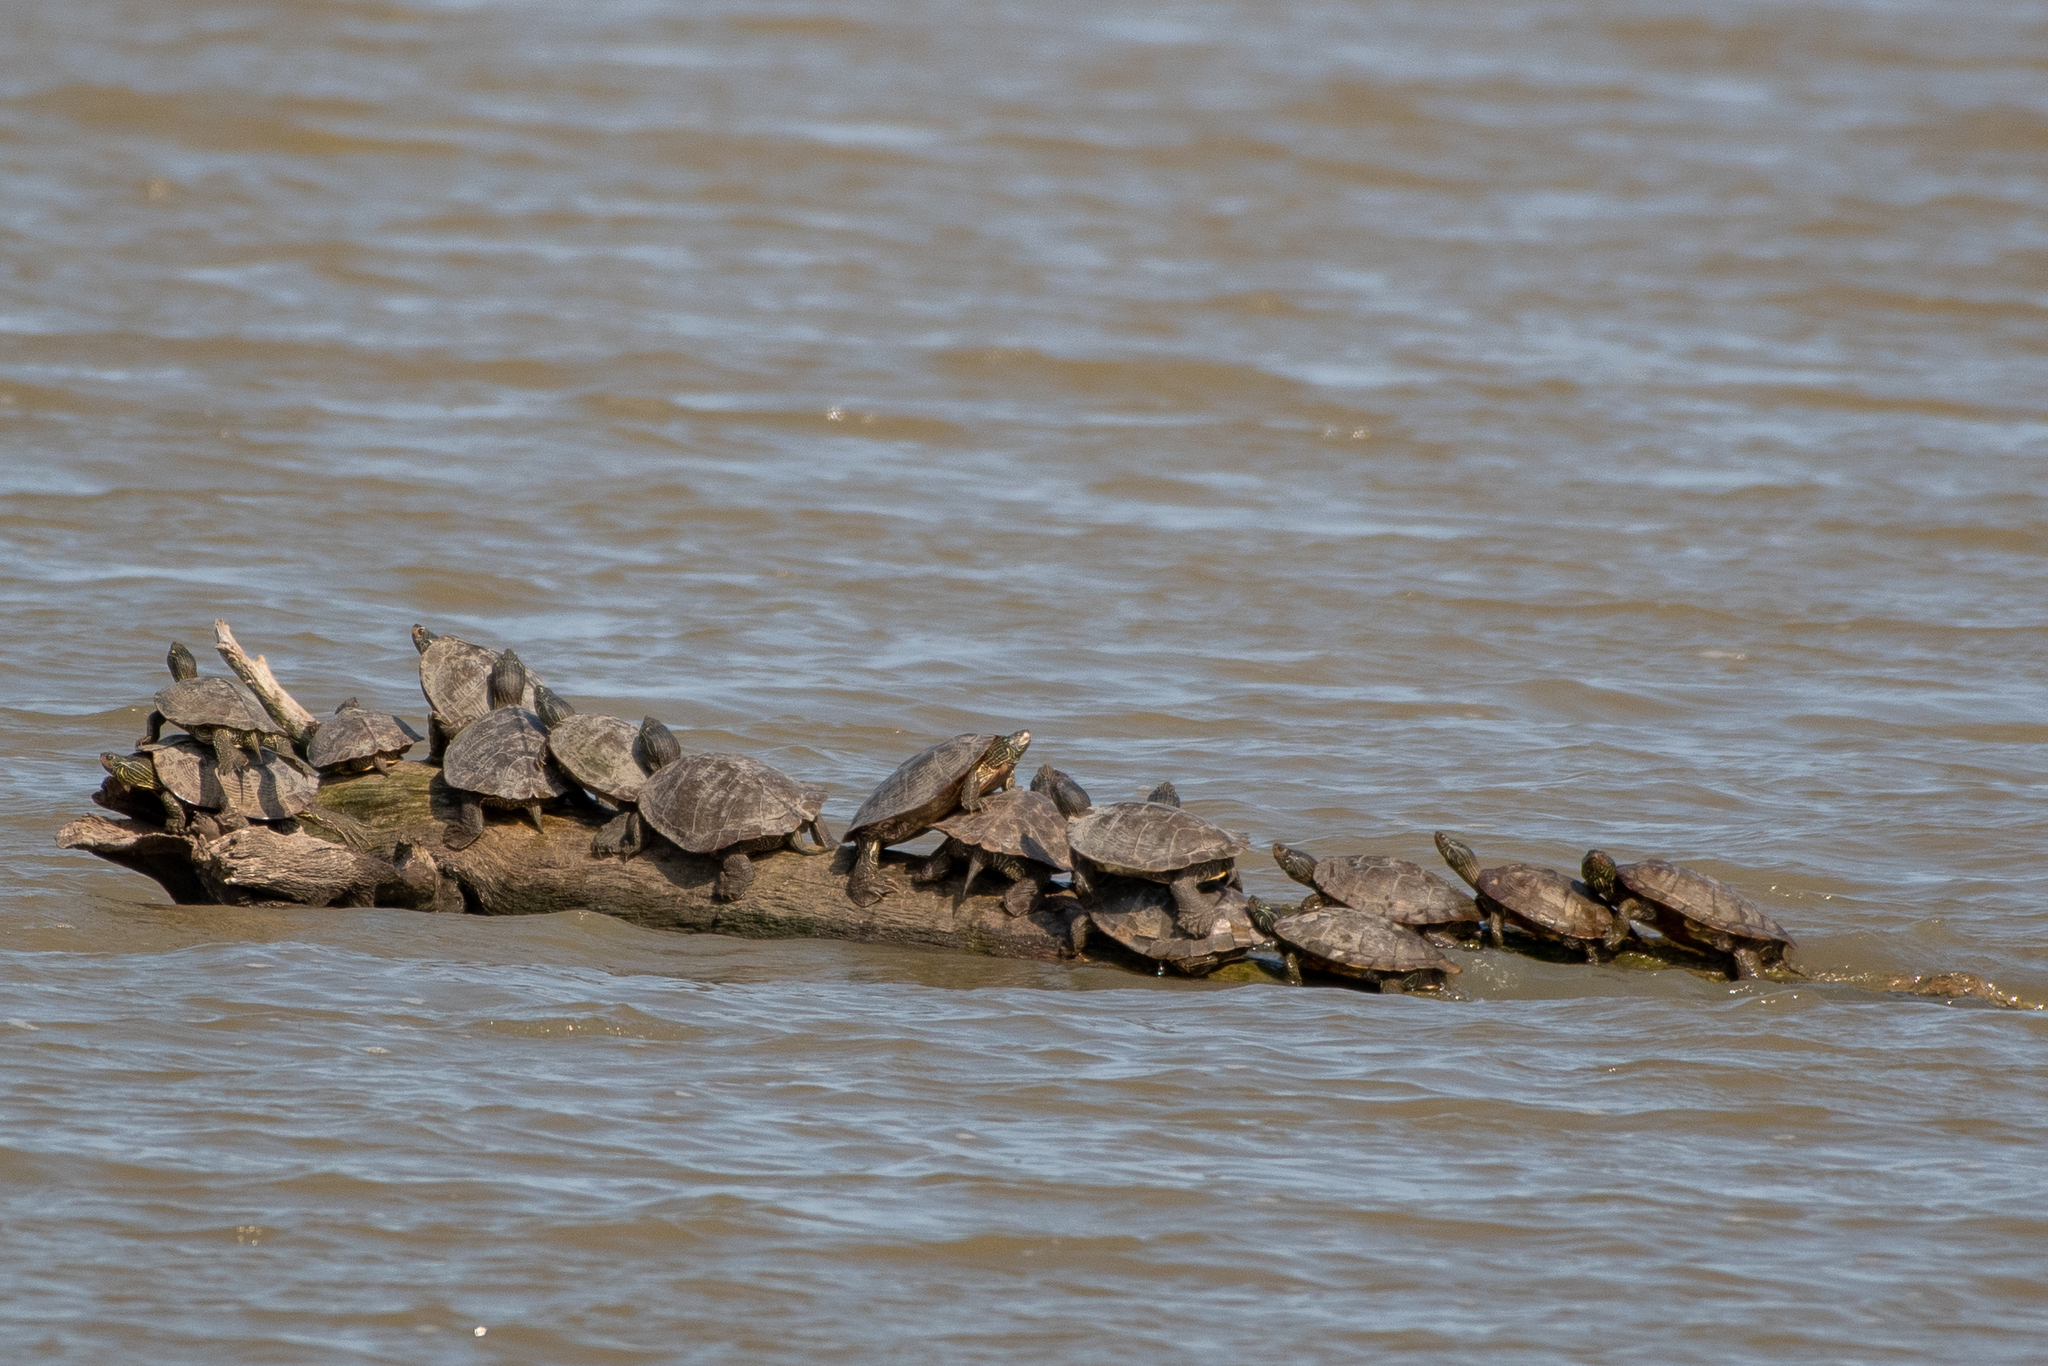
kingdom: Animalia
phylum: Chordata
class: Testudines
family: Emydidae
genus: Graptemys
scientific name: Graptemys geographica
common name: Common map turtle
